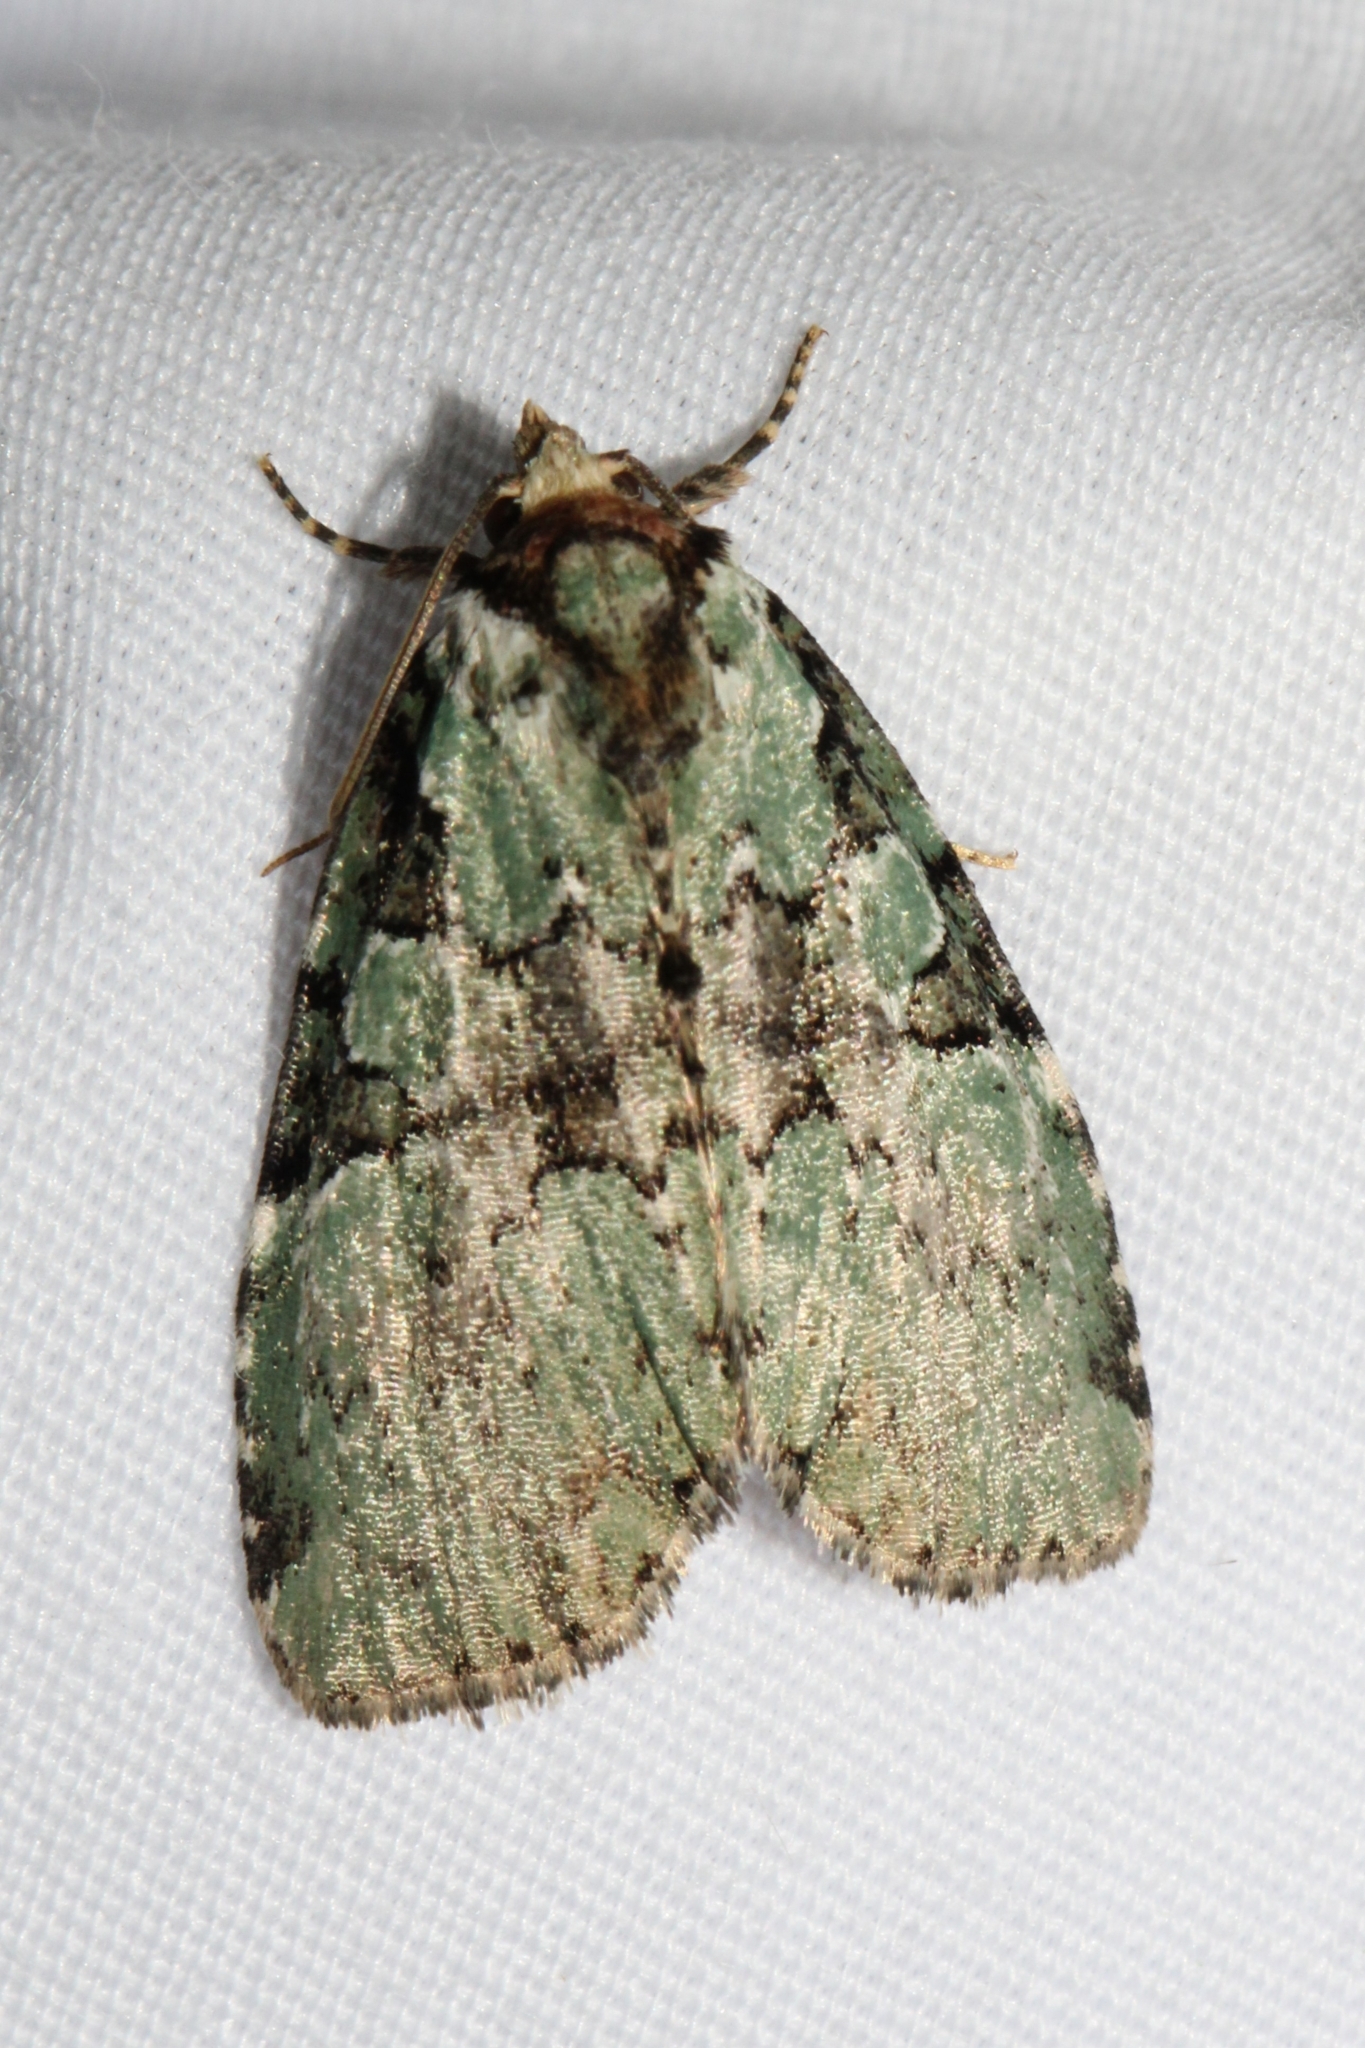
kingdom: Animalia
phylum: Arthropoda
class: Insecta
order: Lepidoptera
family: Noctuidae
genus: Leuconycta
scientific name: Leuconycta lepidula
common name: Marbled-green leuconycta moth
